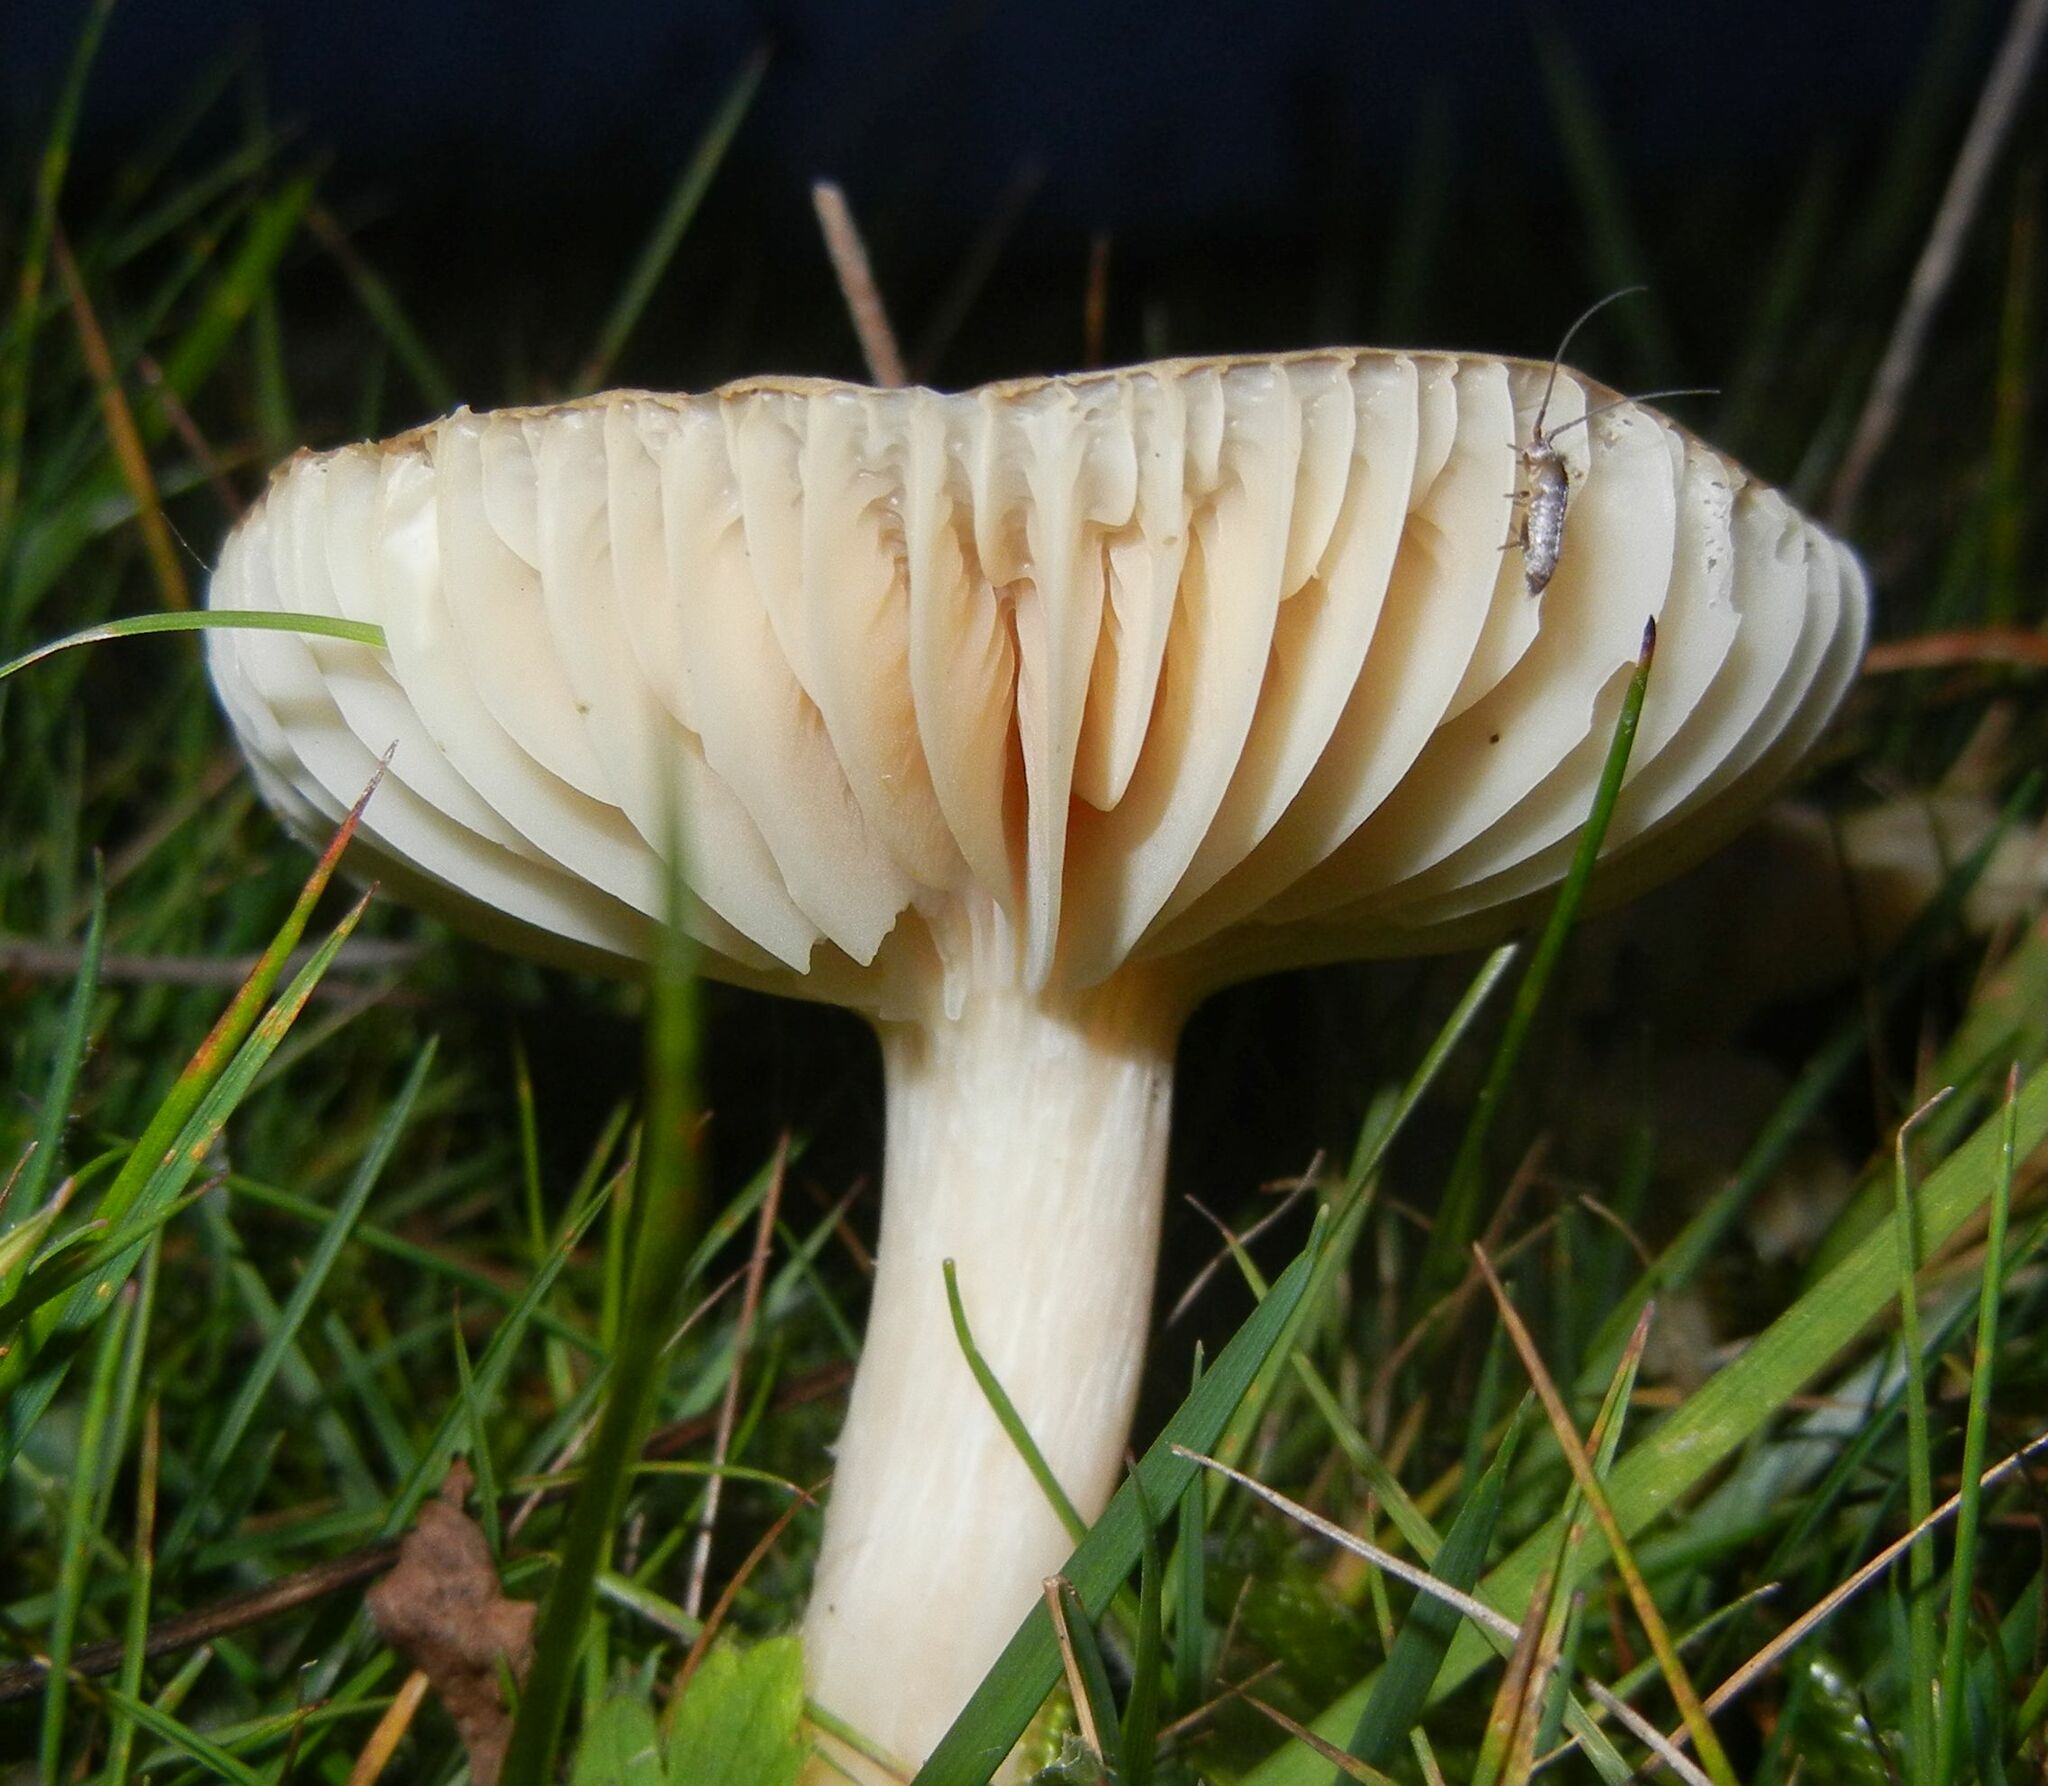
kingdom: Fungi
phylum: Basidiomycota
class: Agaricomycetes
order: Agaricales
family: Hygrophoraceae
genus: Cuphophyllus
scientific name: Cuphophyllus pratensis
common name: Meadow waxcap
